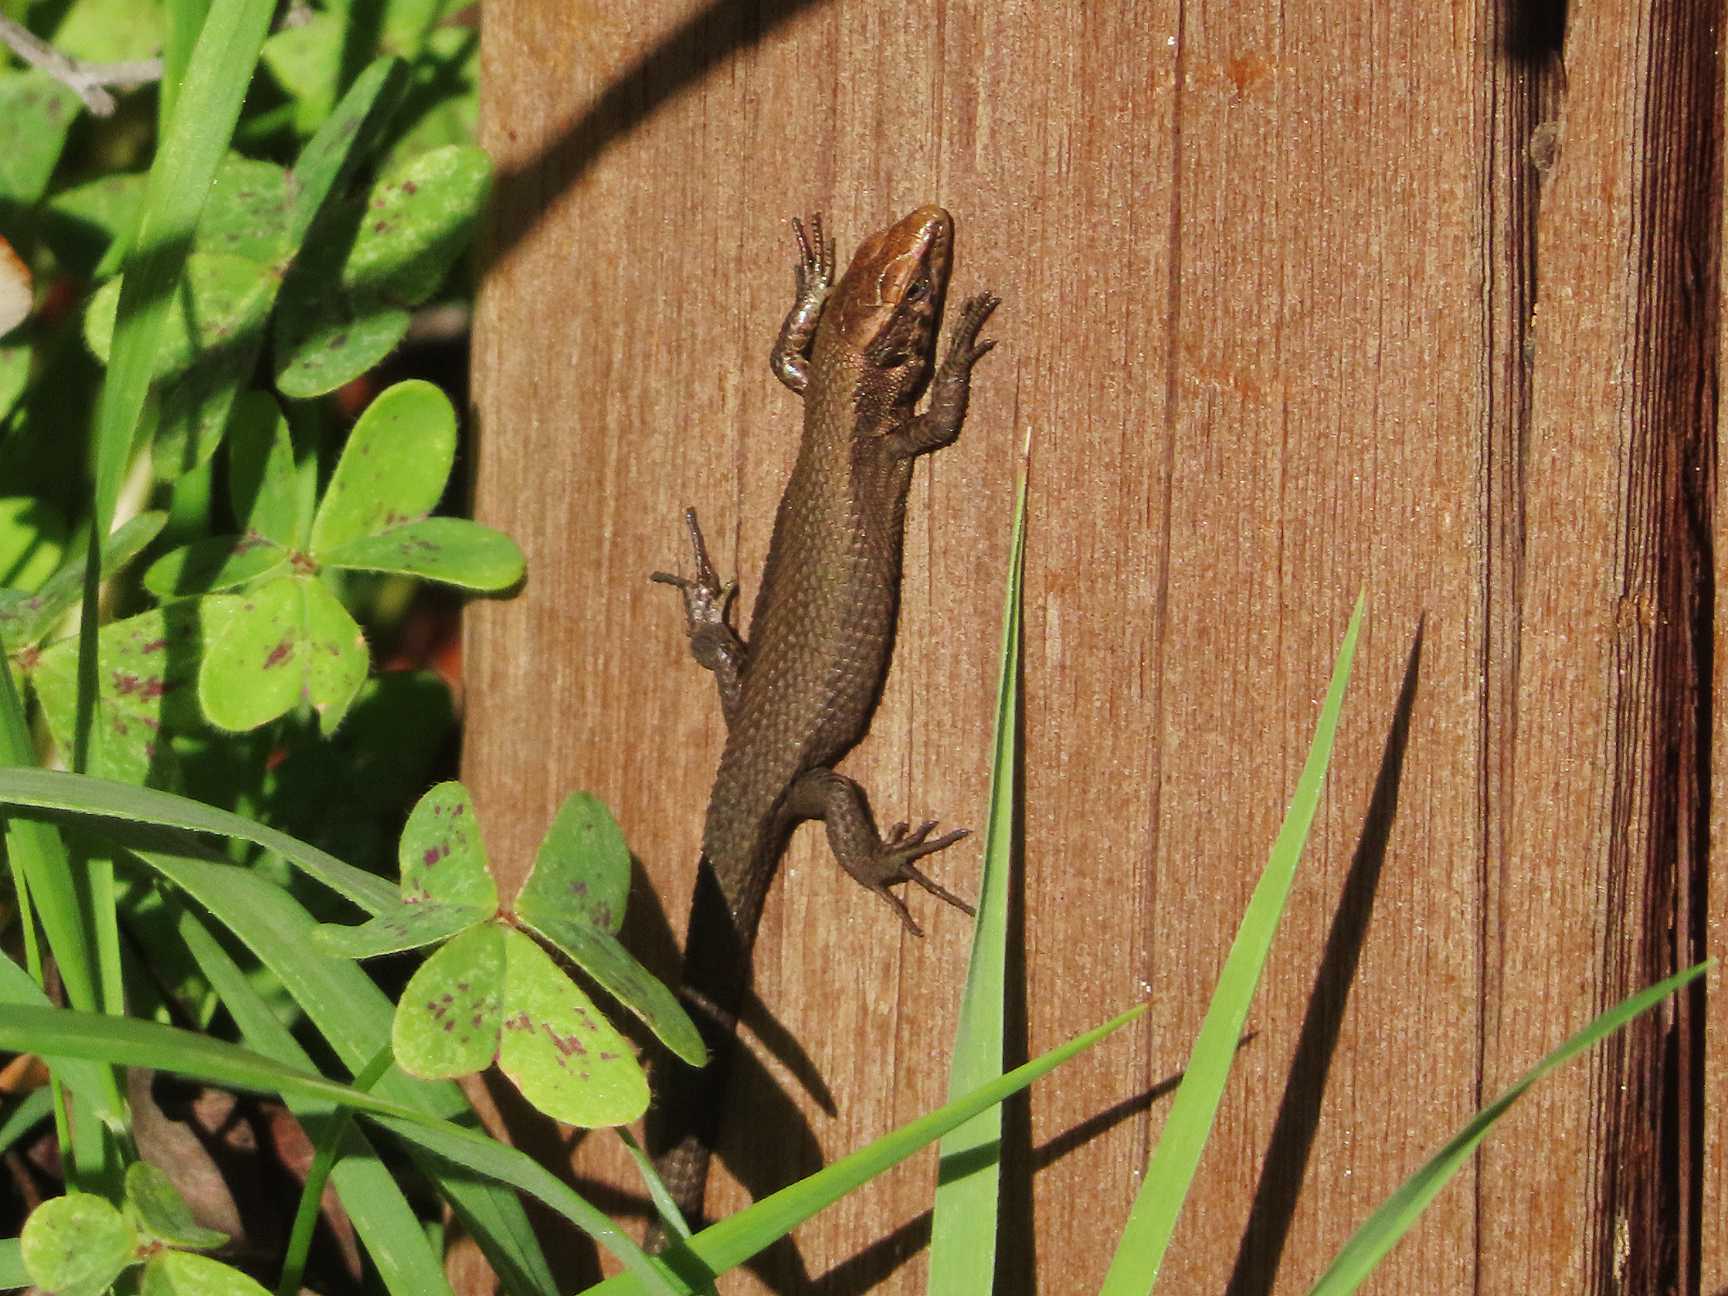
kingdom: Animalia
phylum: Chordata
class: Squamata
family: Lacertidae
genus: Algyroides
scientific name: Algyroides moreoticus
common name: Greek algyroides
